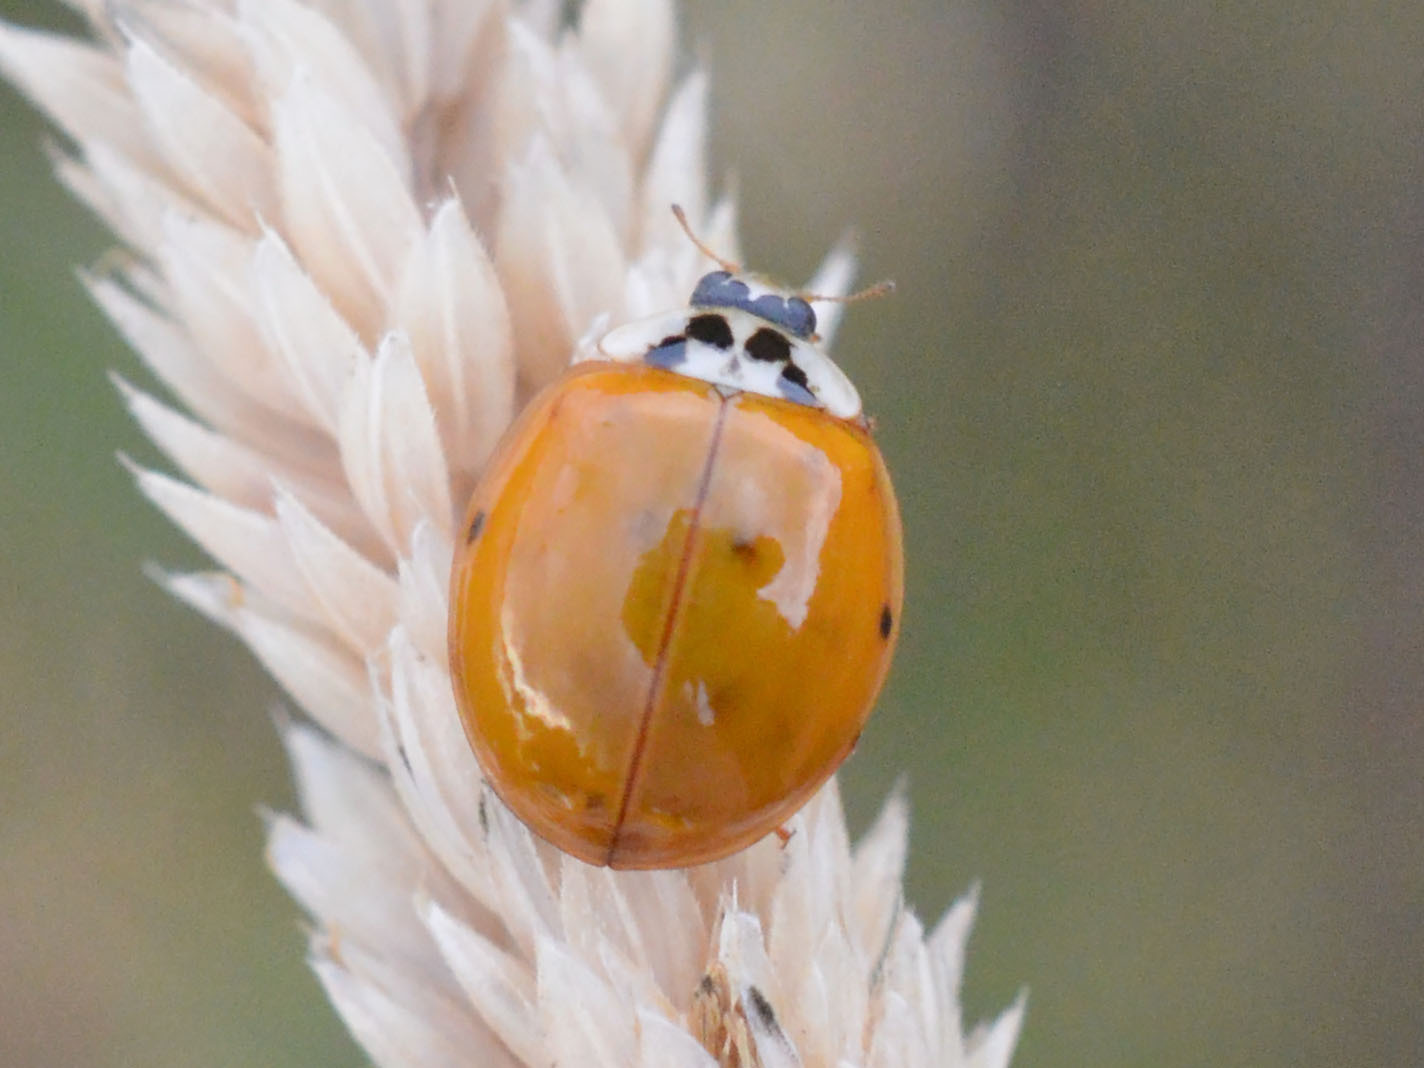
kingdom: Animalia
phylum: Arthropoda
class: Insecta
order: Coleoptera
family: Coccinellidae
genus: Harmonia
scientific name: Harmonia axyridis
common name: Harlequin ladybird
